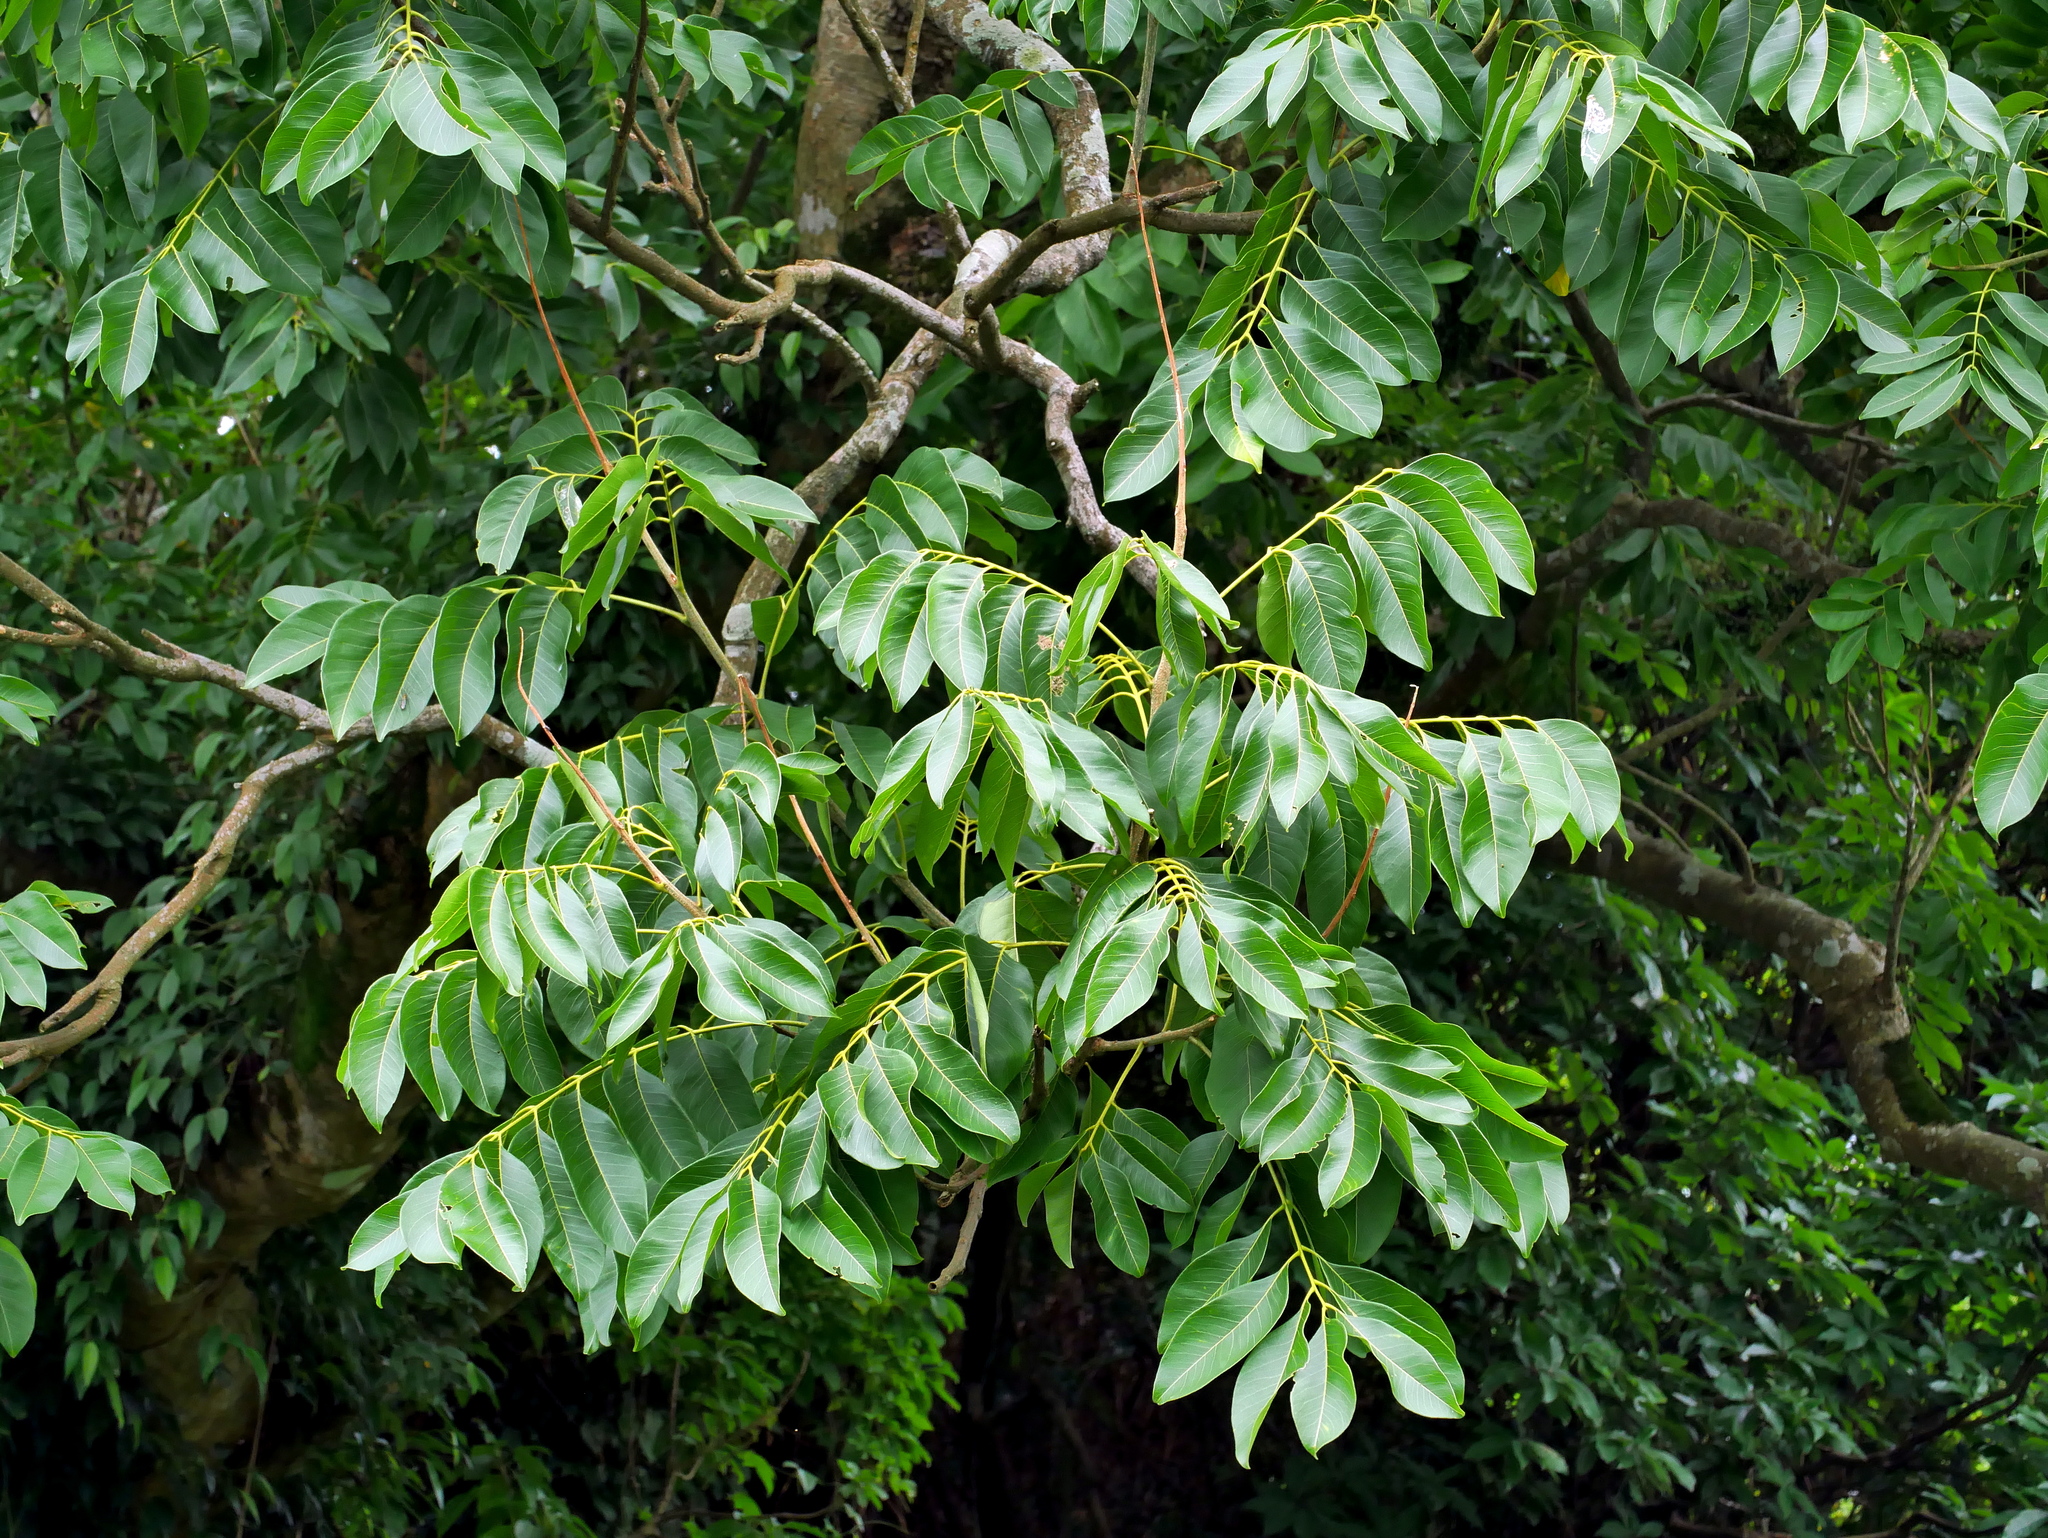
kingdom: Plantae
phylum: Tracheophyta
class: Magnoliopsida
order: Sapindales
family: Sapindaceae
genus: Sapindus
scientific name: Sapindus mukorossi
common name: Chinese soapberry
